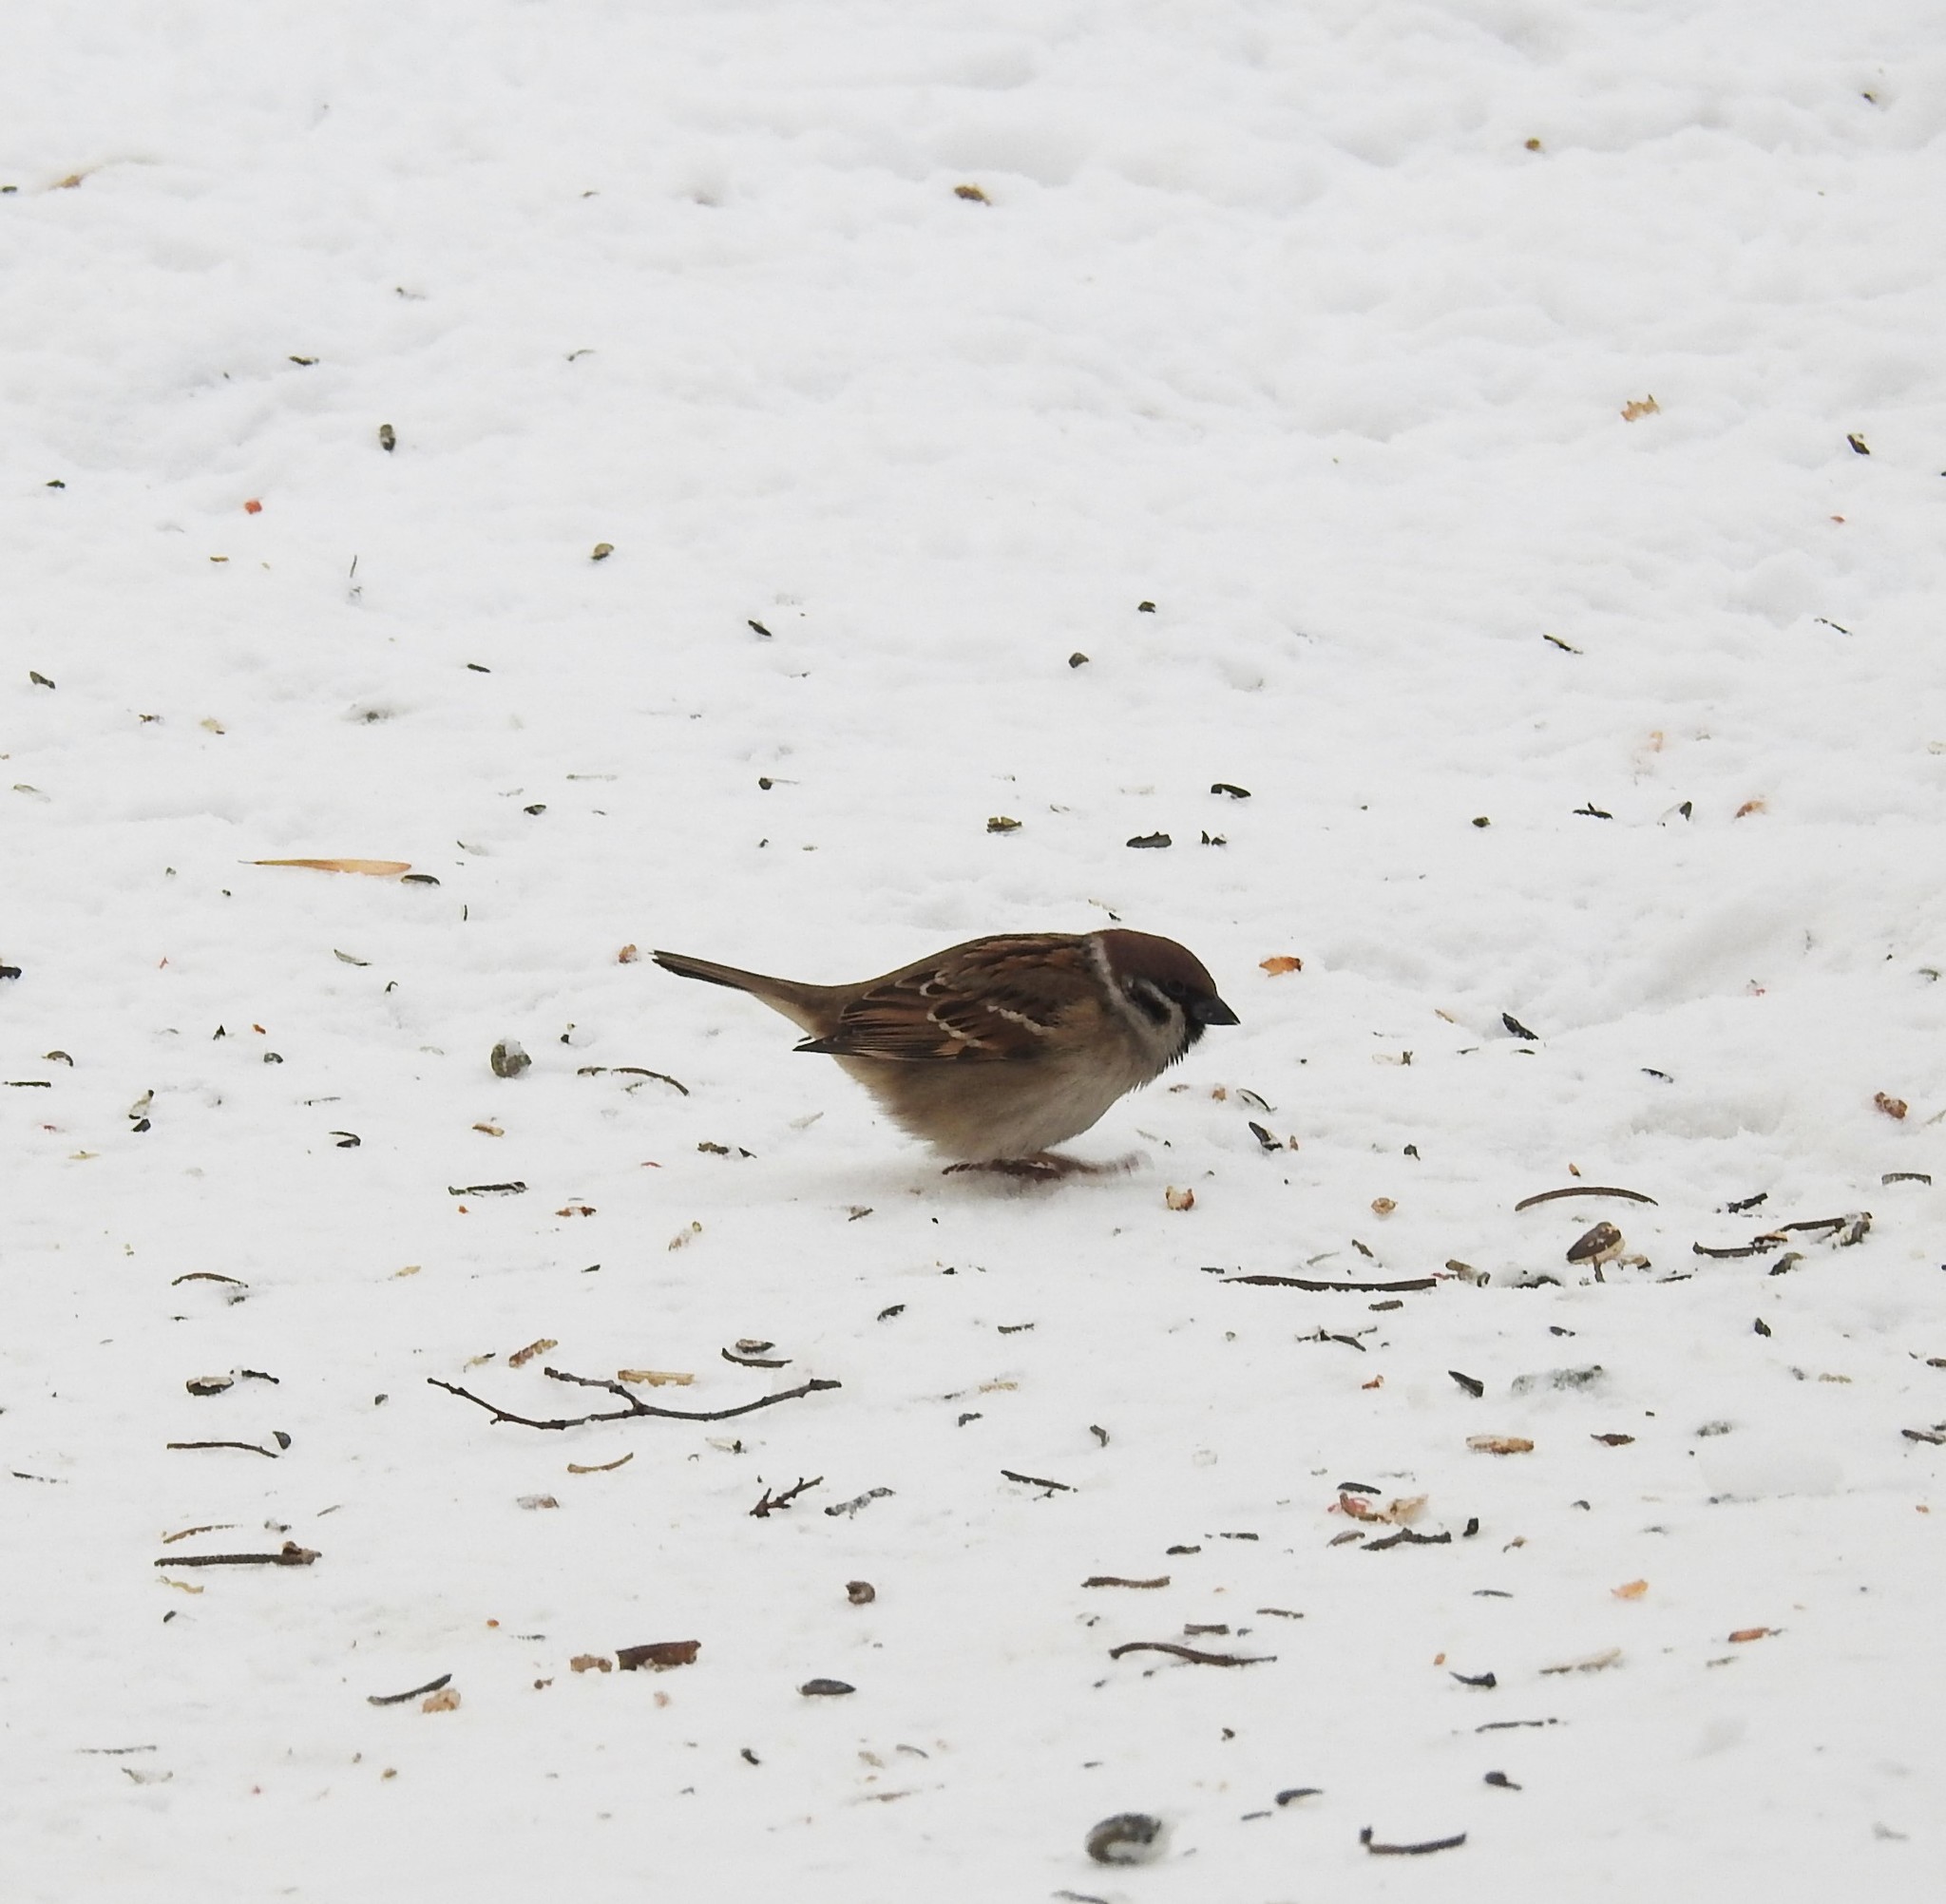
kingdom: Animalia
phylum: Chordata
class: Aves
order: Passeriformes
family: Passeridae
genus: Passer
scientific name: Passer montanus
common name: Eurasian tree sparrow
